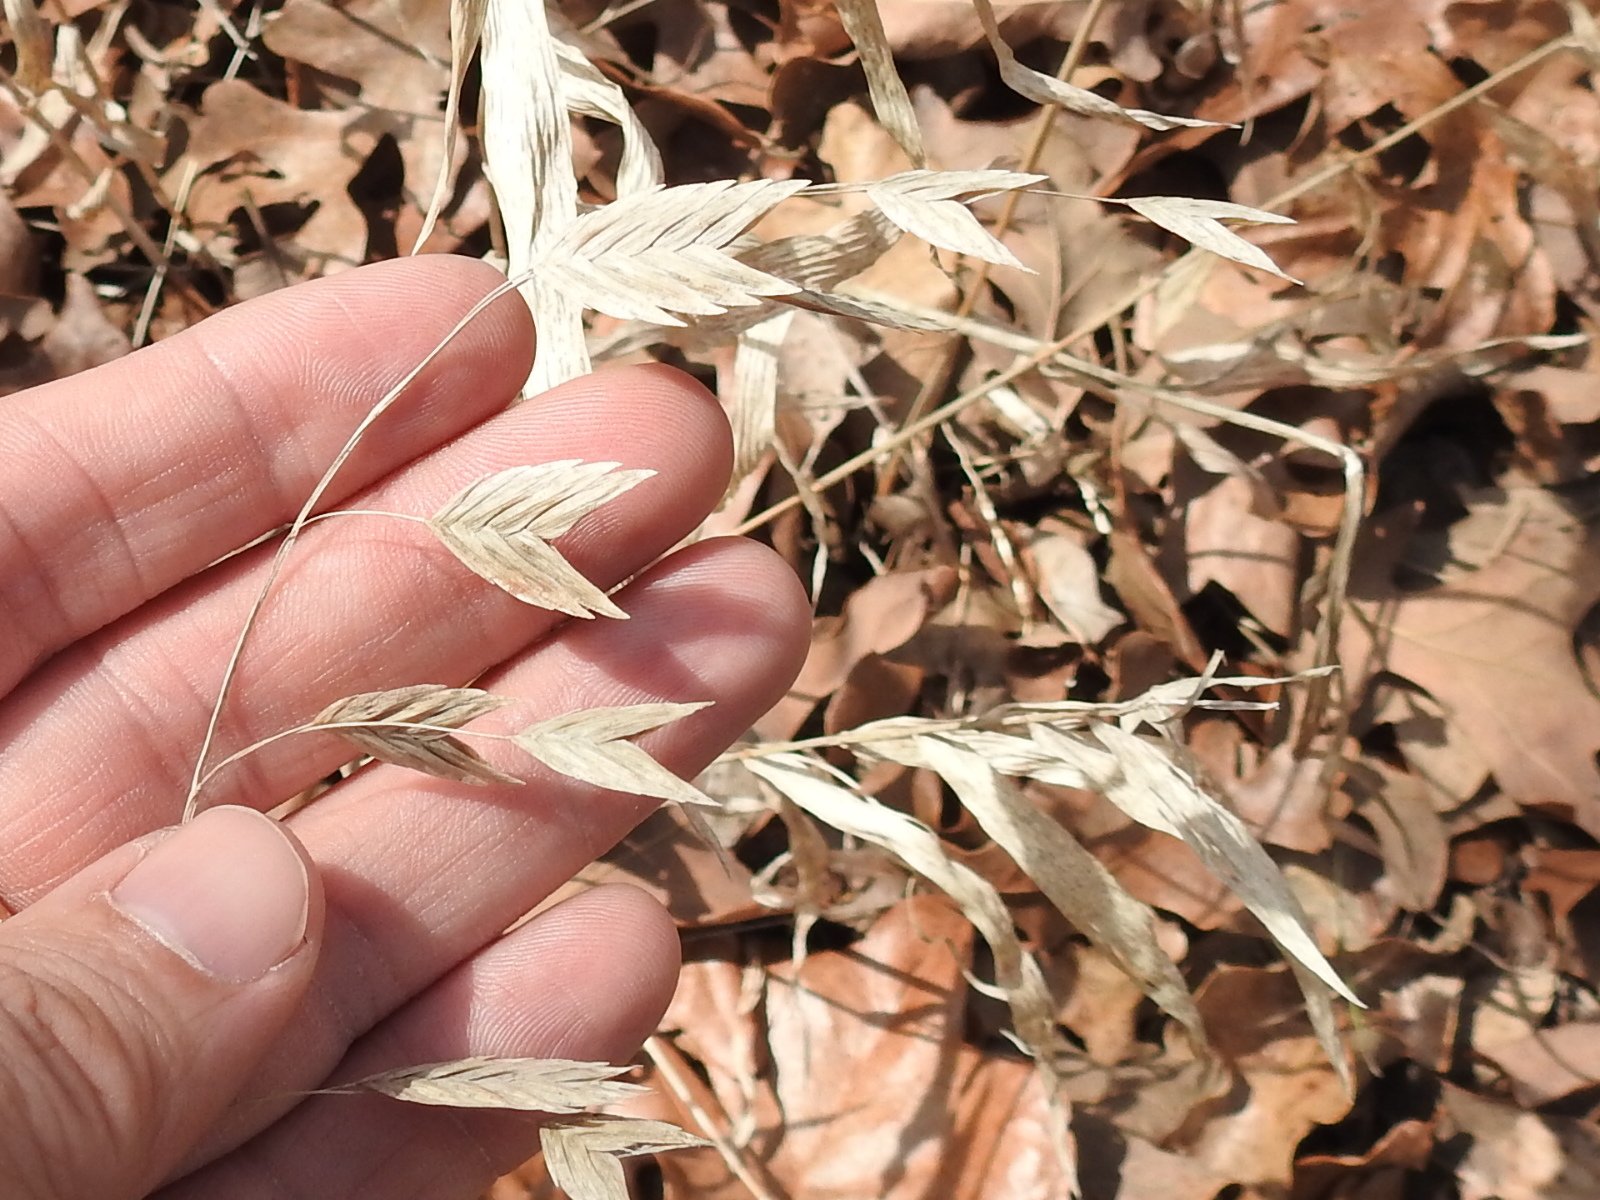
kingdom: Plantae
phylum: Tracheophyta
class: Liliopsida
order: Poales
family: Poaceae
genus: Chasmanthium
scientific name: Chasmanthium latifolium
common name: Broad-leaved chasmanthium
